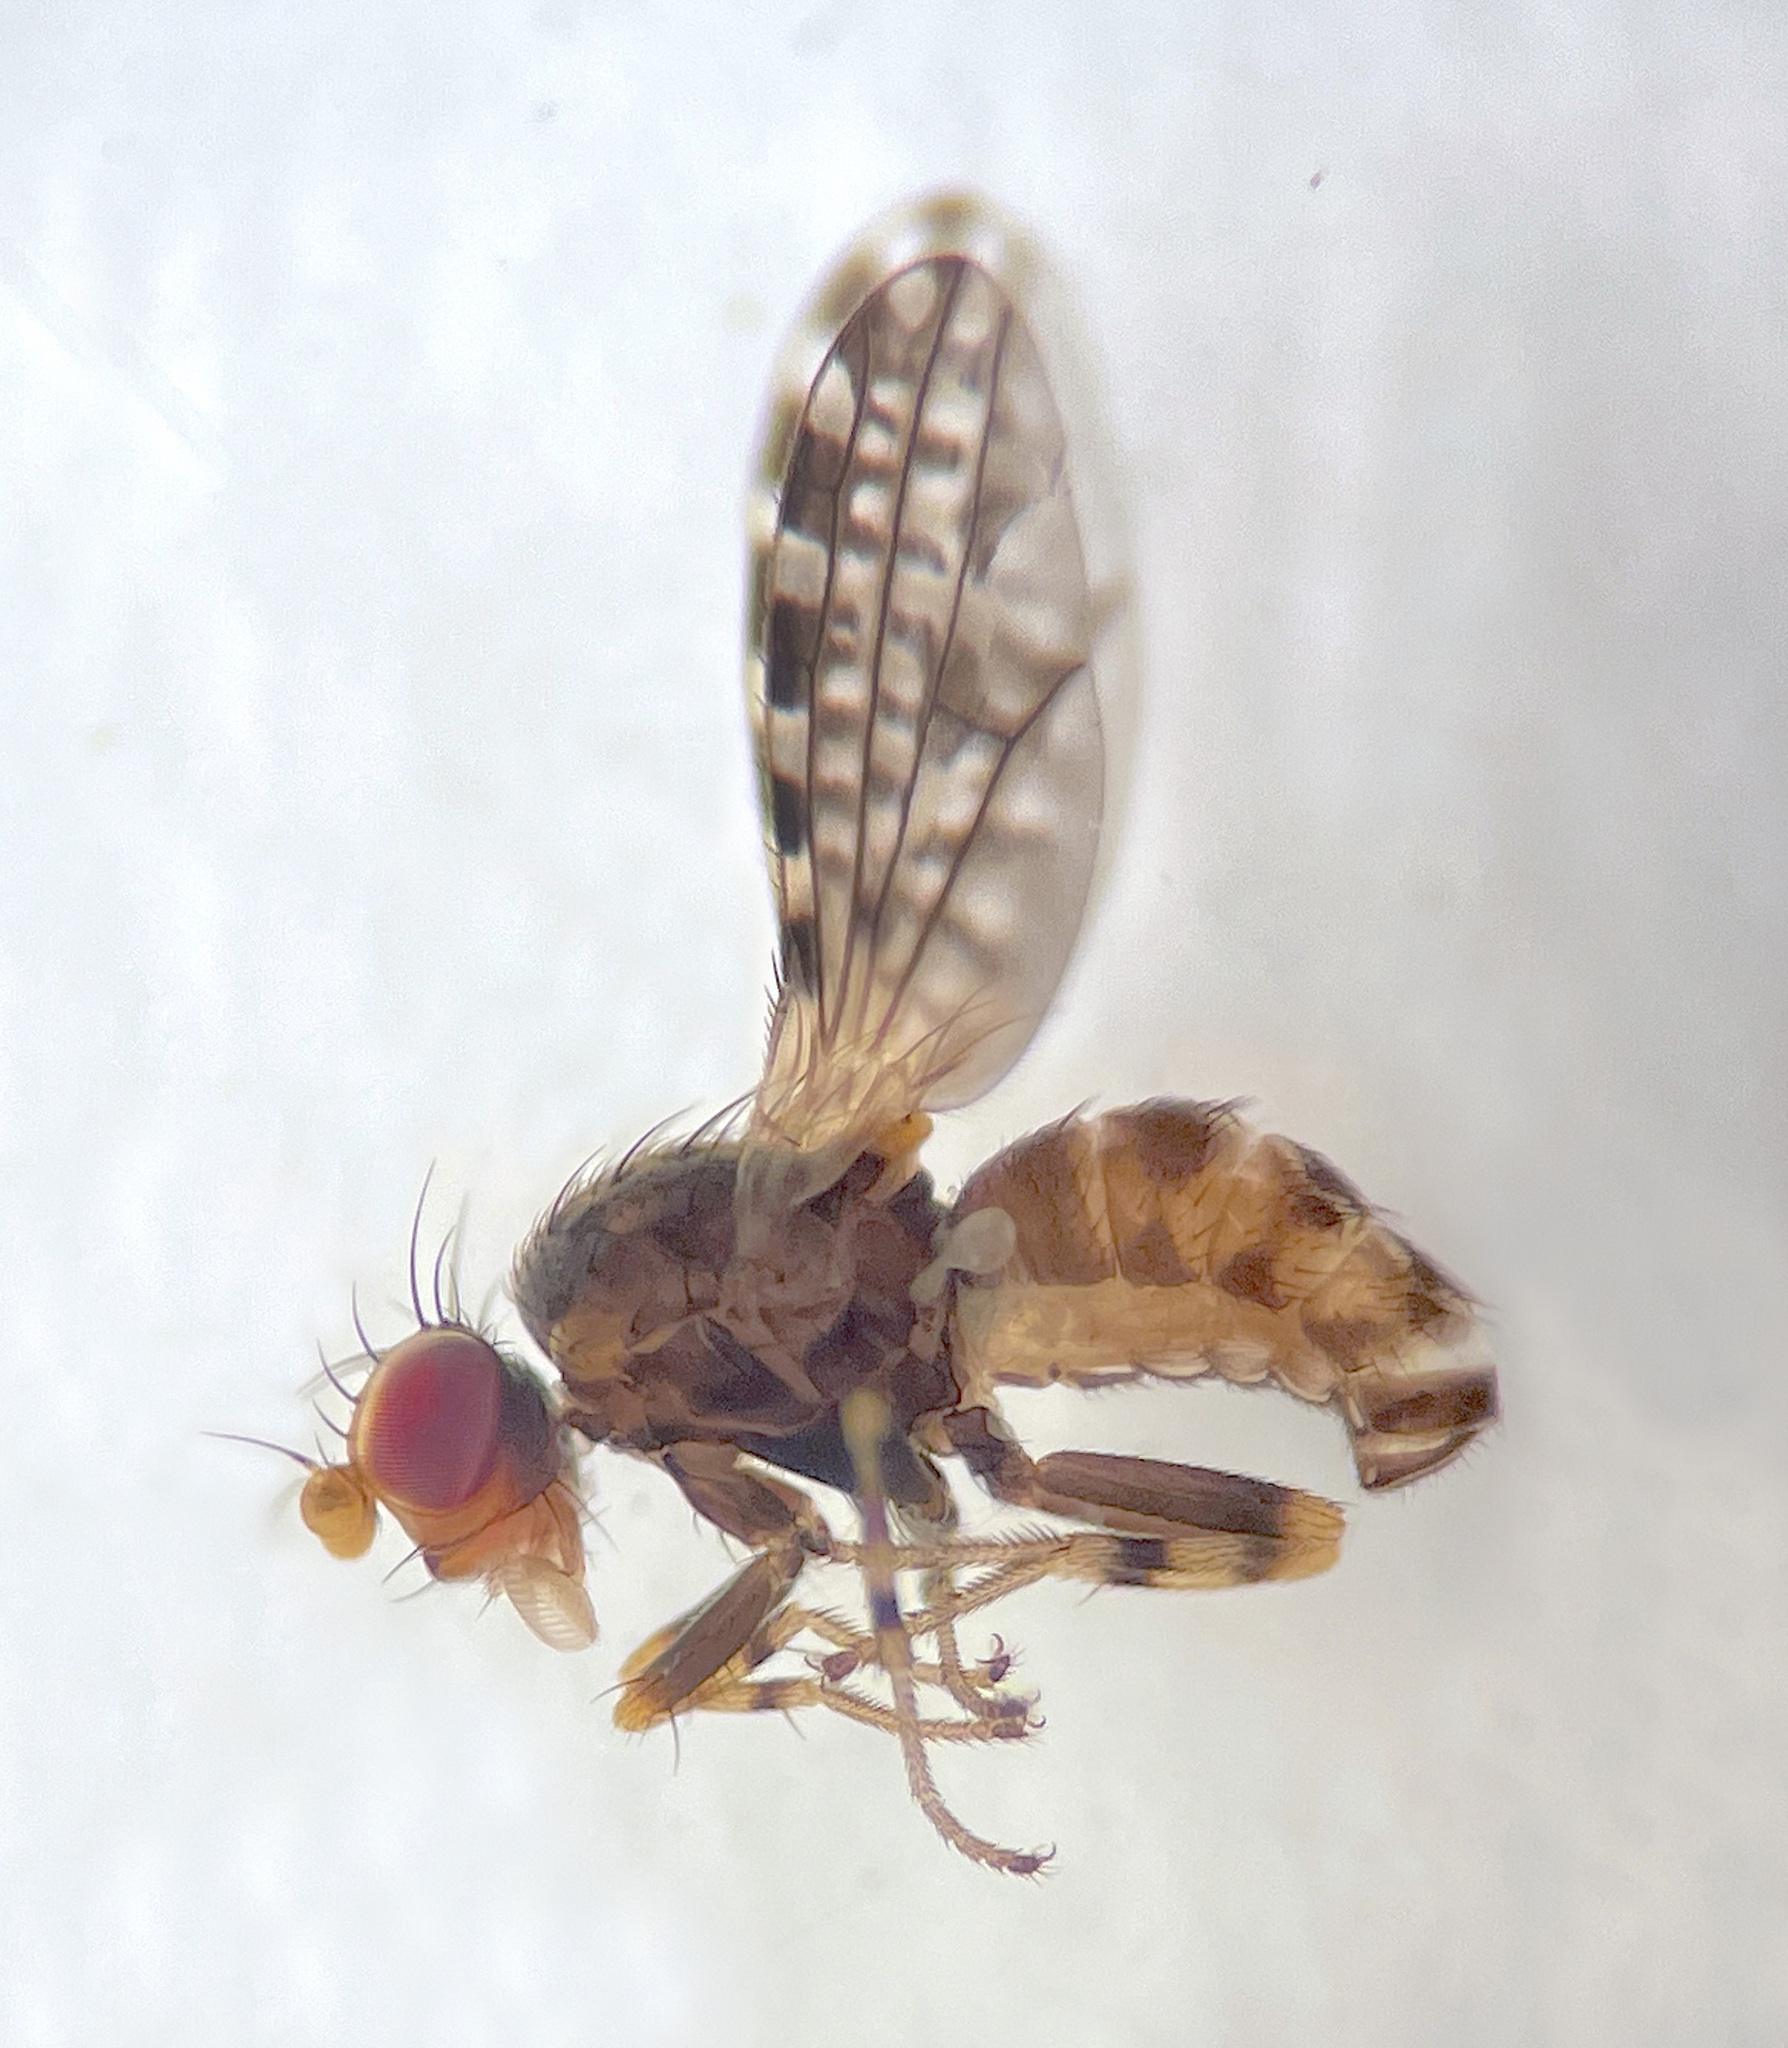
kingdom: Animalia
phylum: Arthropoda
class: Insecta
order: Diptera
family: Heleomyzidae
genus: Xeneura
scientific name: Xeneura picata
